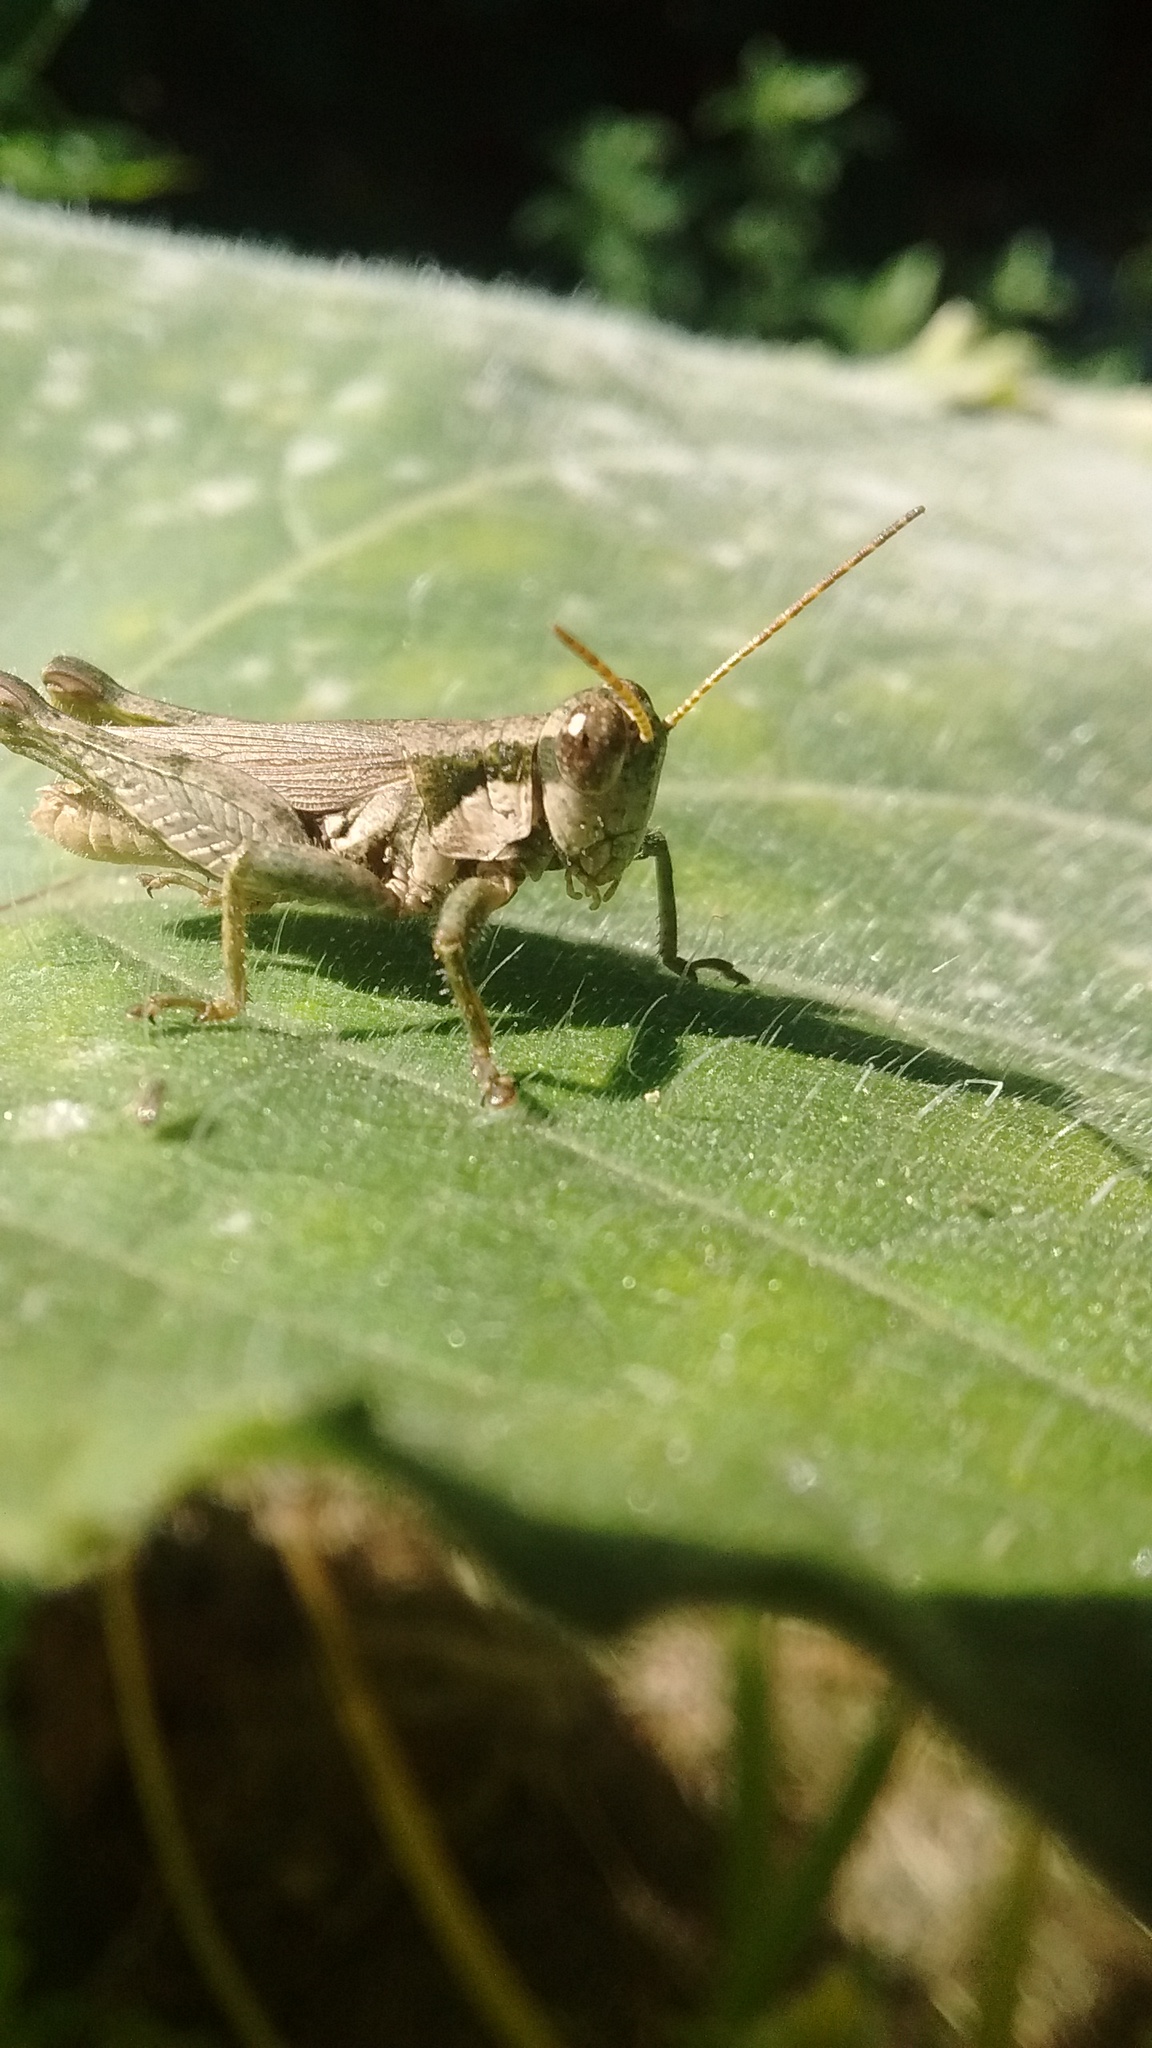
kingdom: Animalia
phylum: Arthropoda
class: Insecta
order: Orthoptera
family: Acrididae
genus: Ronderosia
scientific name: Ronderosia bergii
